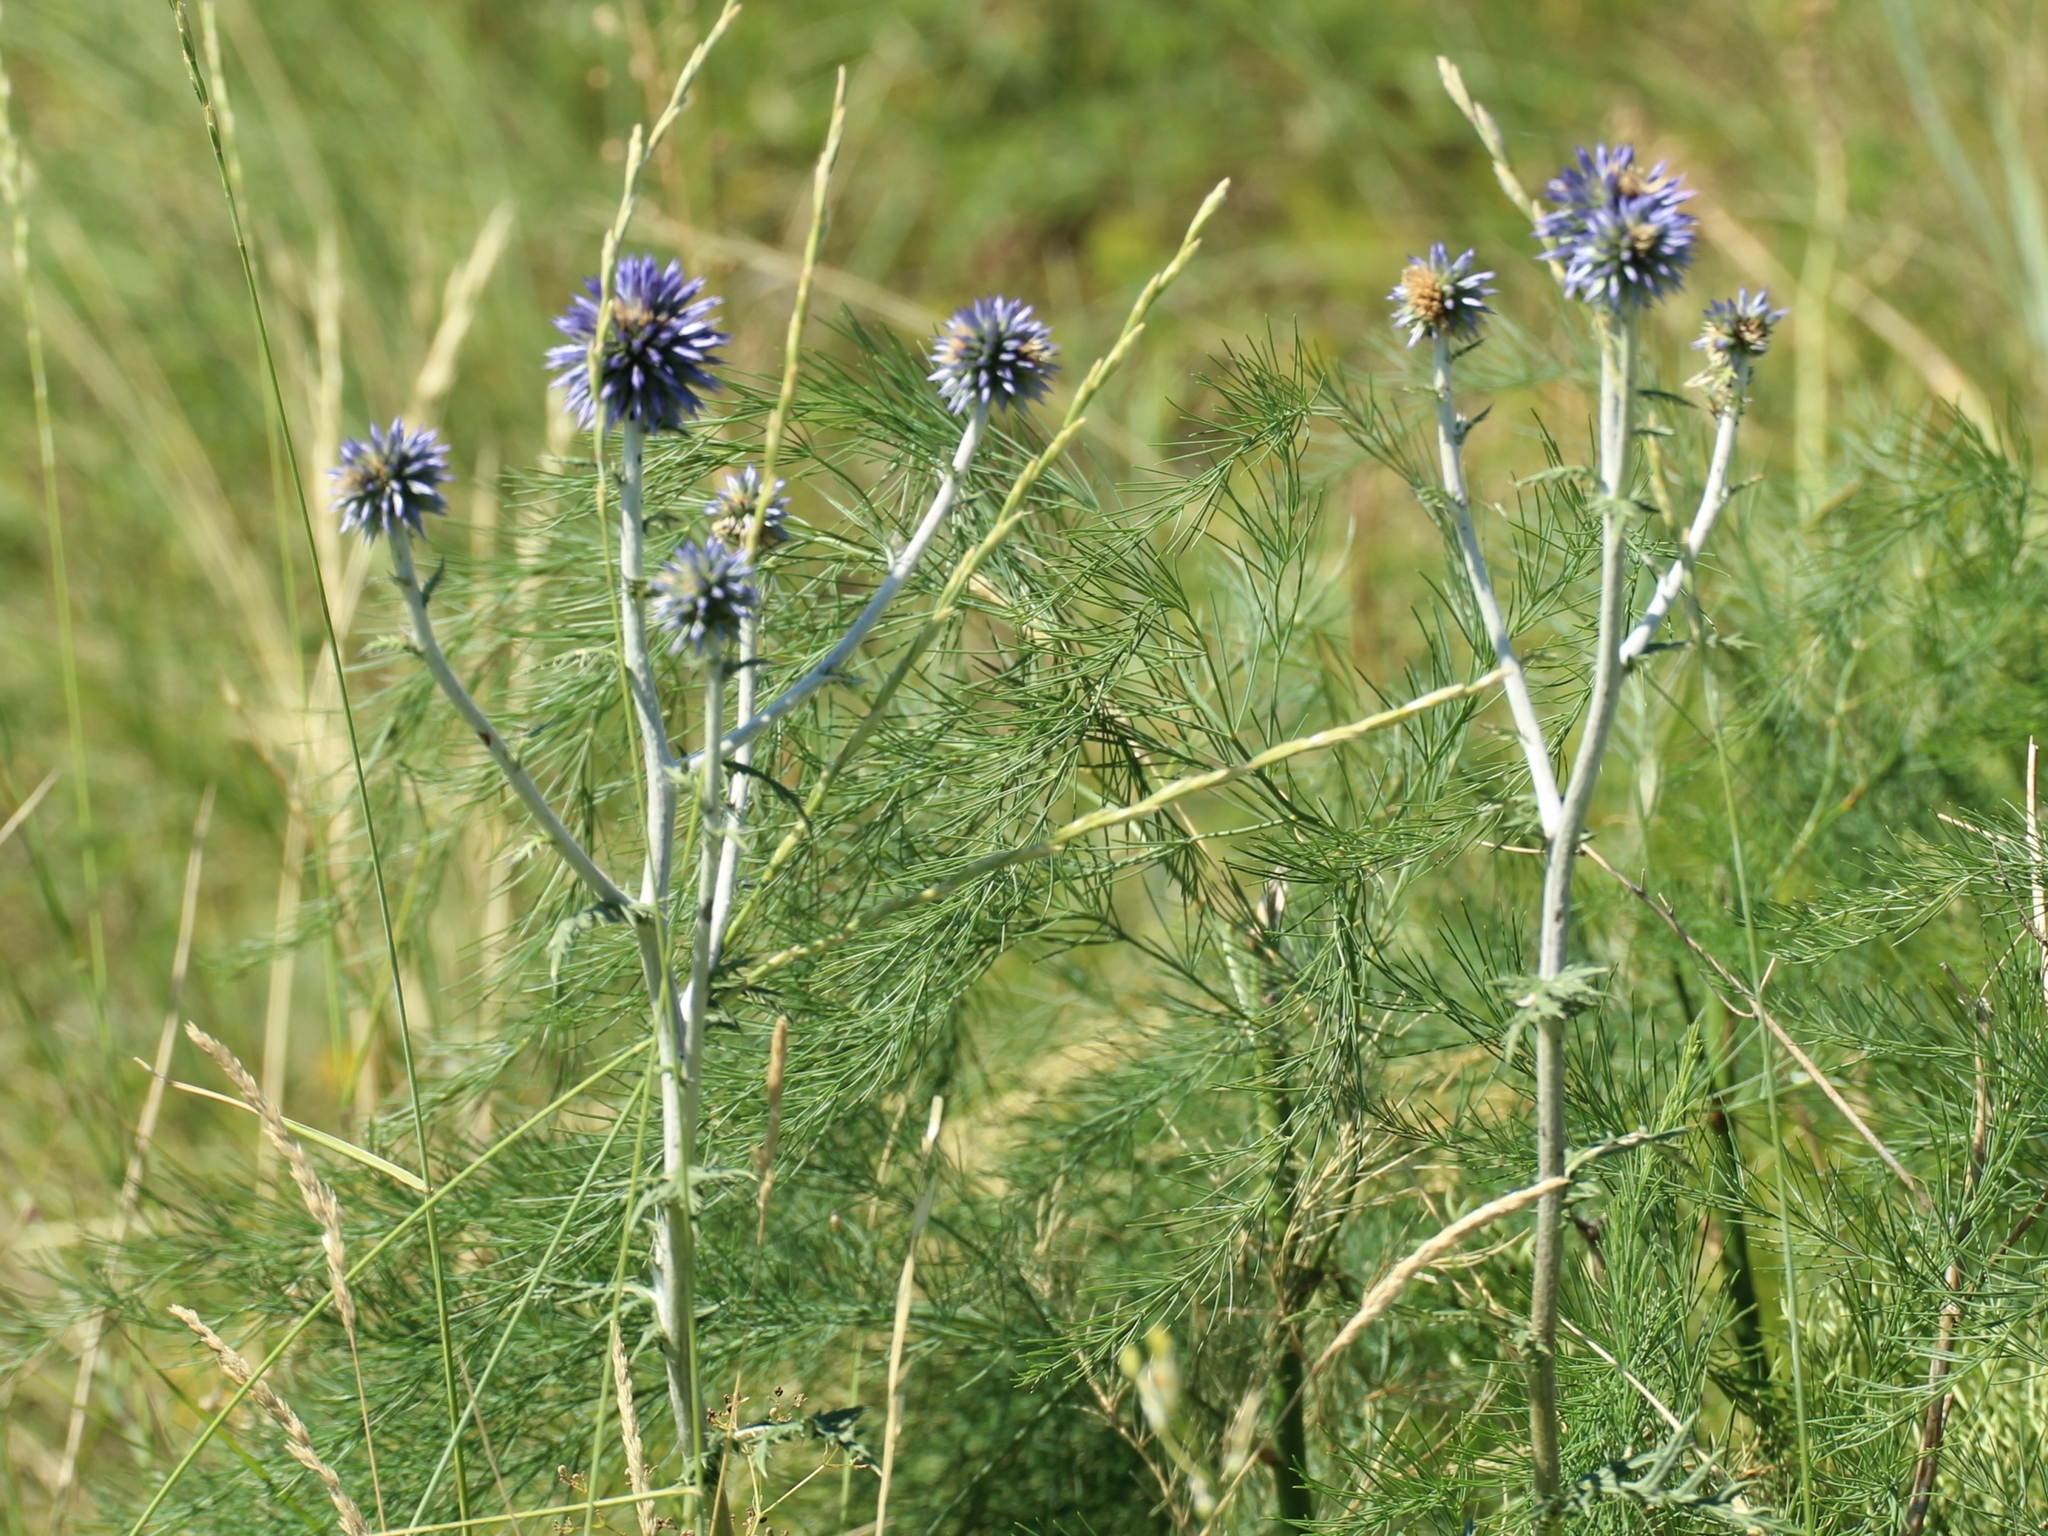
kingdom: Plantae
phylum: Tracheophyta
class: Magnoliopsida
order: Asterales
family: Asteraceae
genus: Echinops
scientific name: Echinops ritro
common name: Globe thistle
